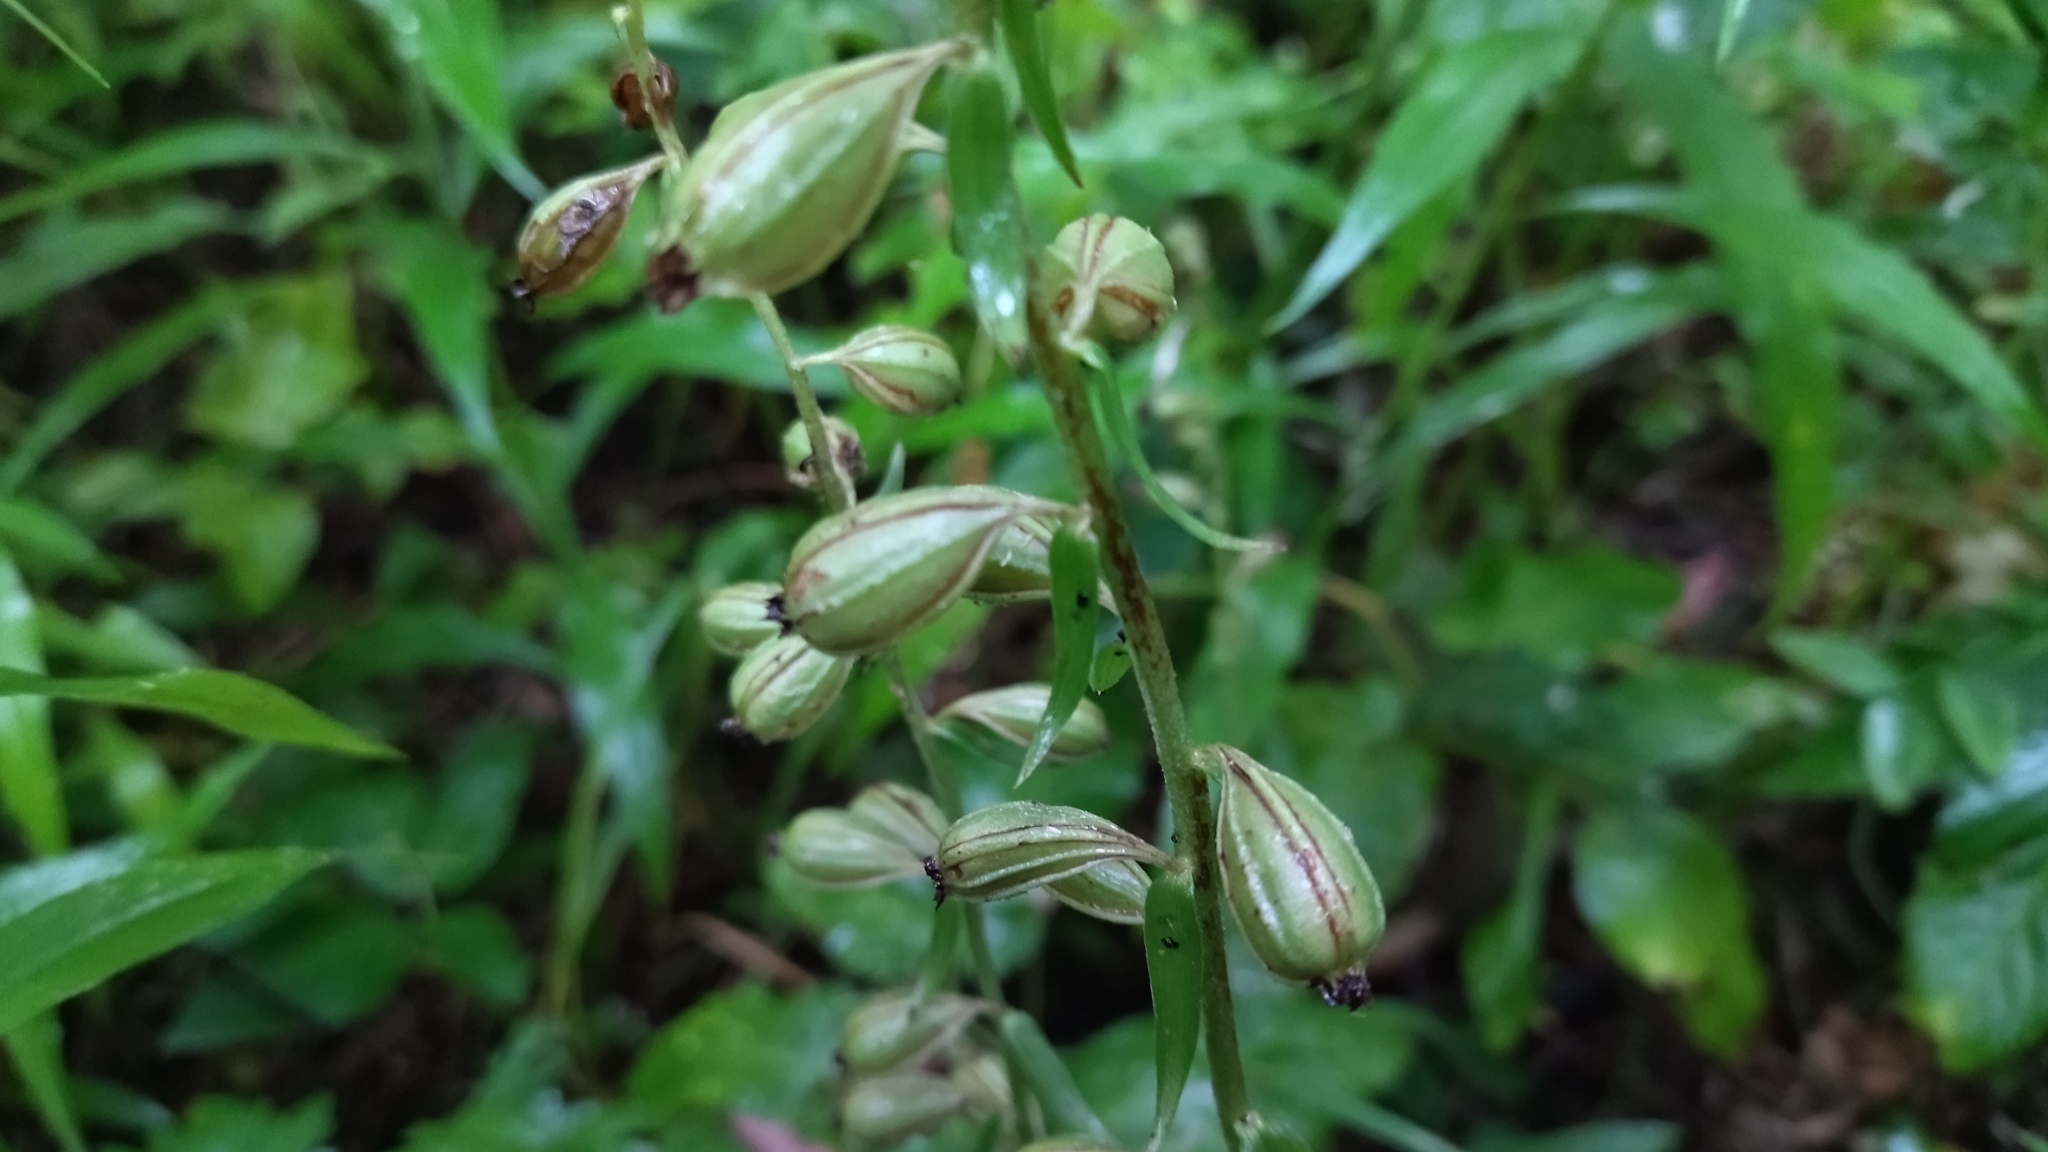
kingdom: Plantae
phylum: Tracheophyta
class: Liliopsida
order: Asparagales
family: Orchidaceae
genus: Epipactis
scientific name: Epipactis helleborine
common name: Broad-leaved helleborine
